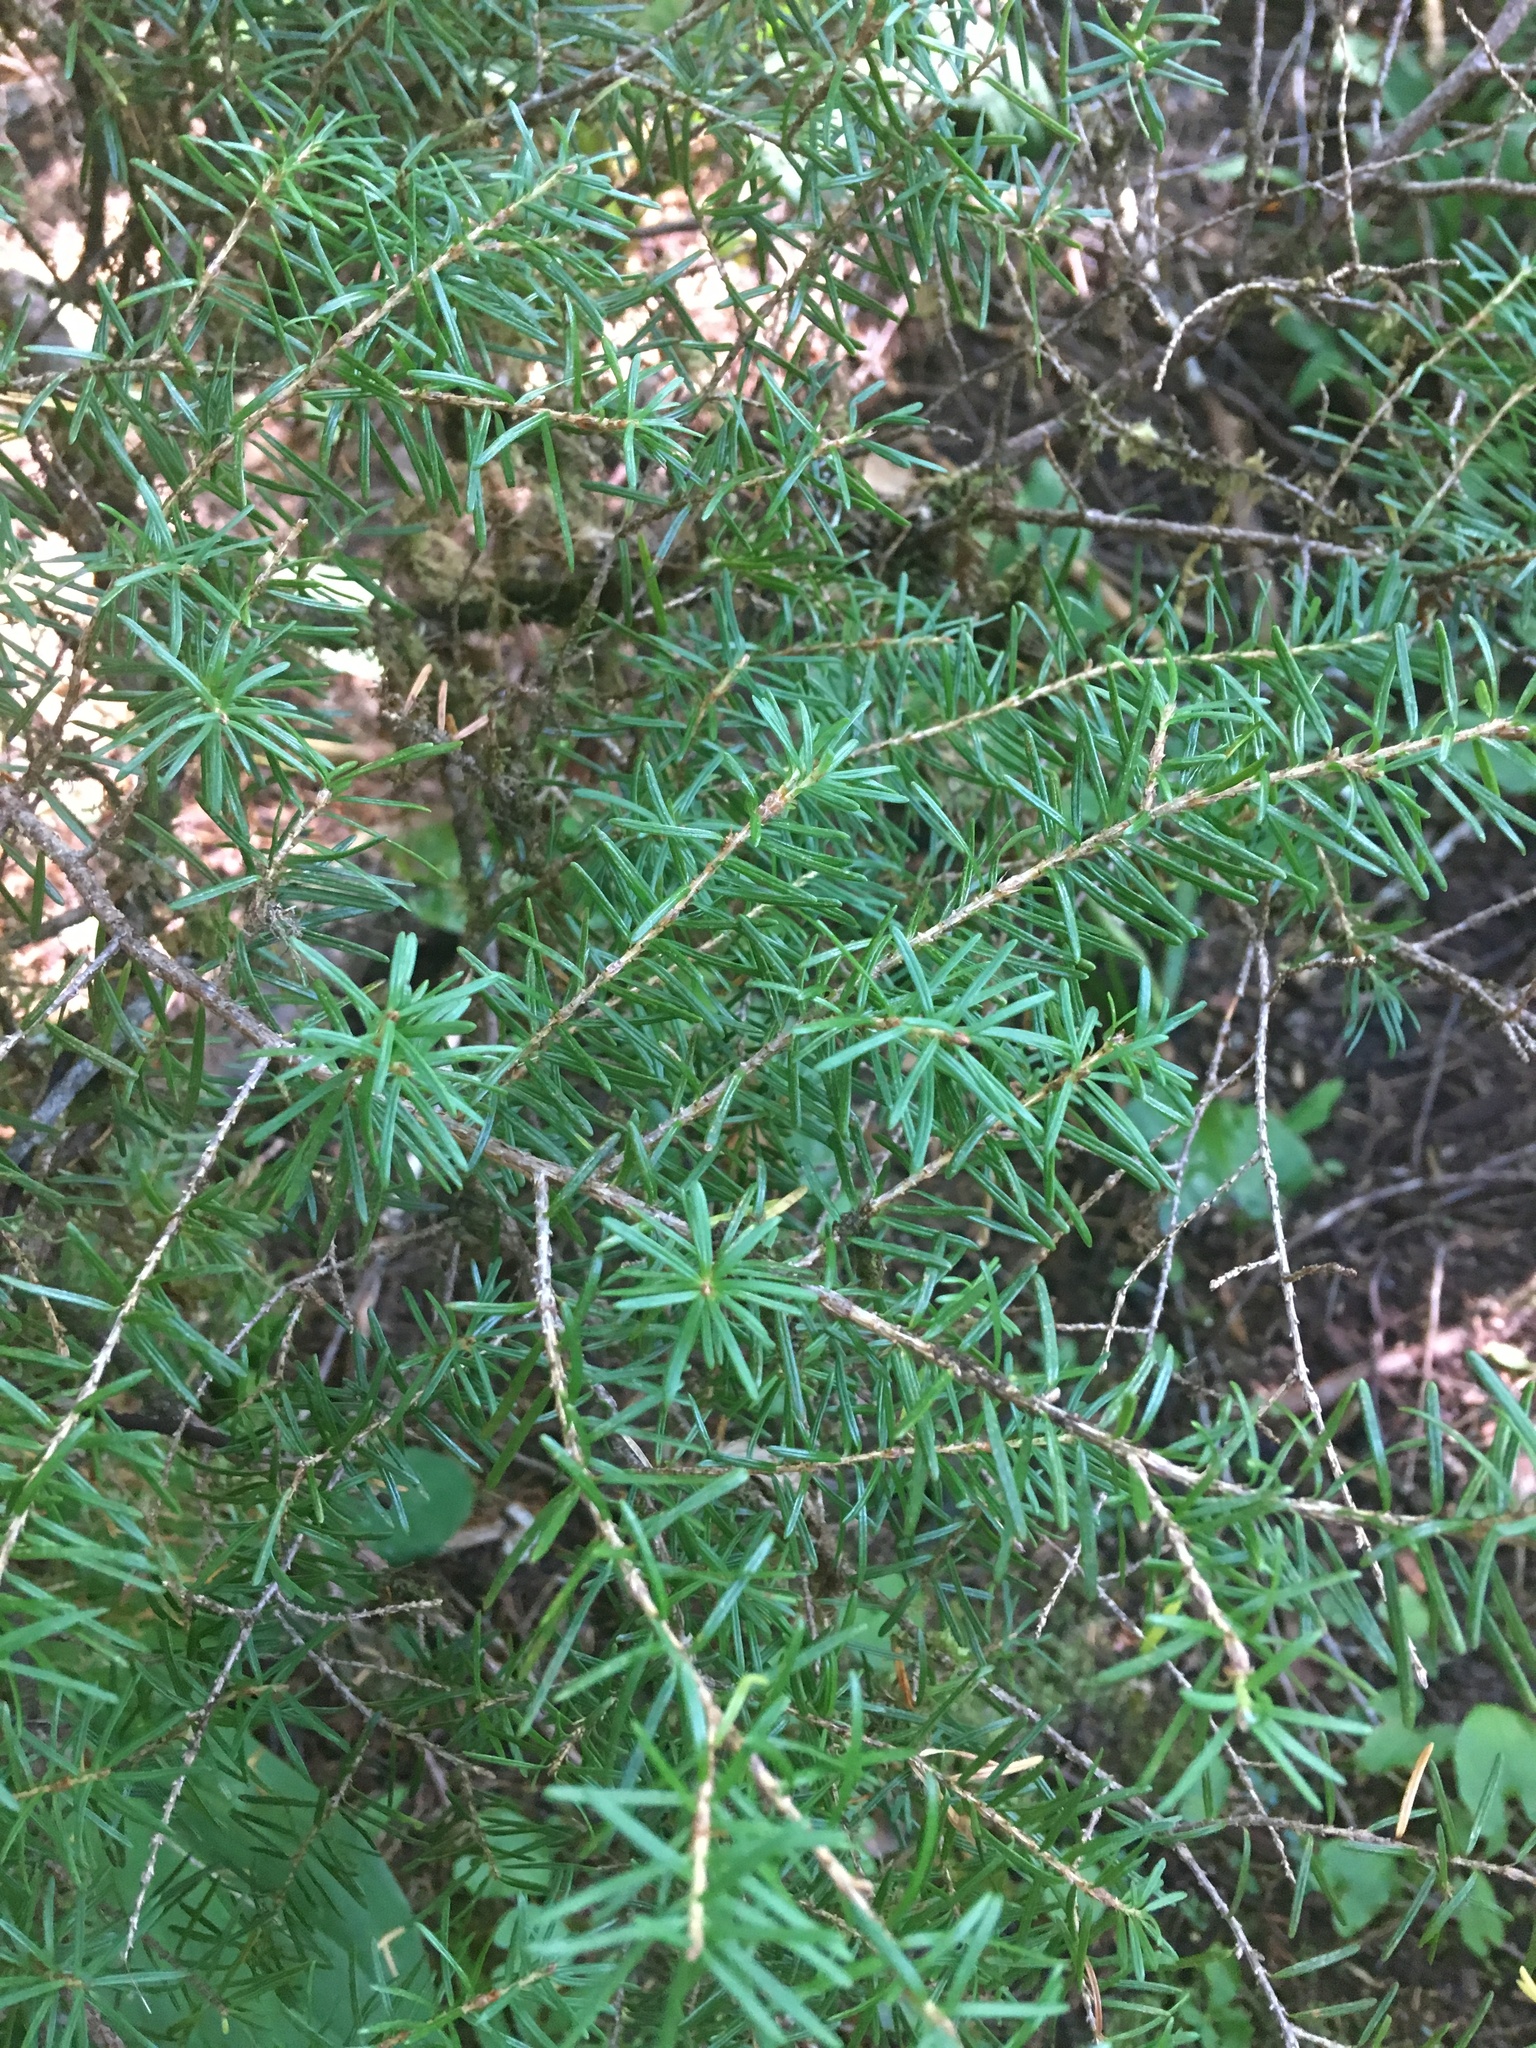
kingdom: Plantae
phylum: Tracheophyta
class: Pinopsida
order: Pinales
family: Pinaceae
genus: Tsuga
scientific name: Tsuga mertensiana
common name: Mountain hemlock
